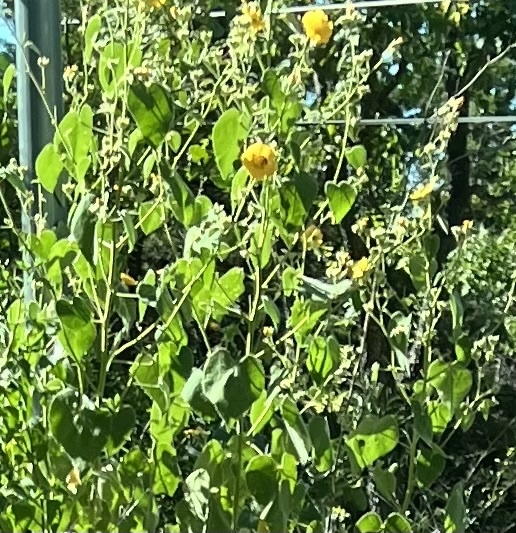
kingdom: Plantae
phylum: Tracheophyta
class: Magnoliopsida
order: Malvales
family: Malvaceae
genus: Allowissadula
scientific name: Allowissadula holosericea
